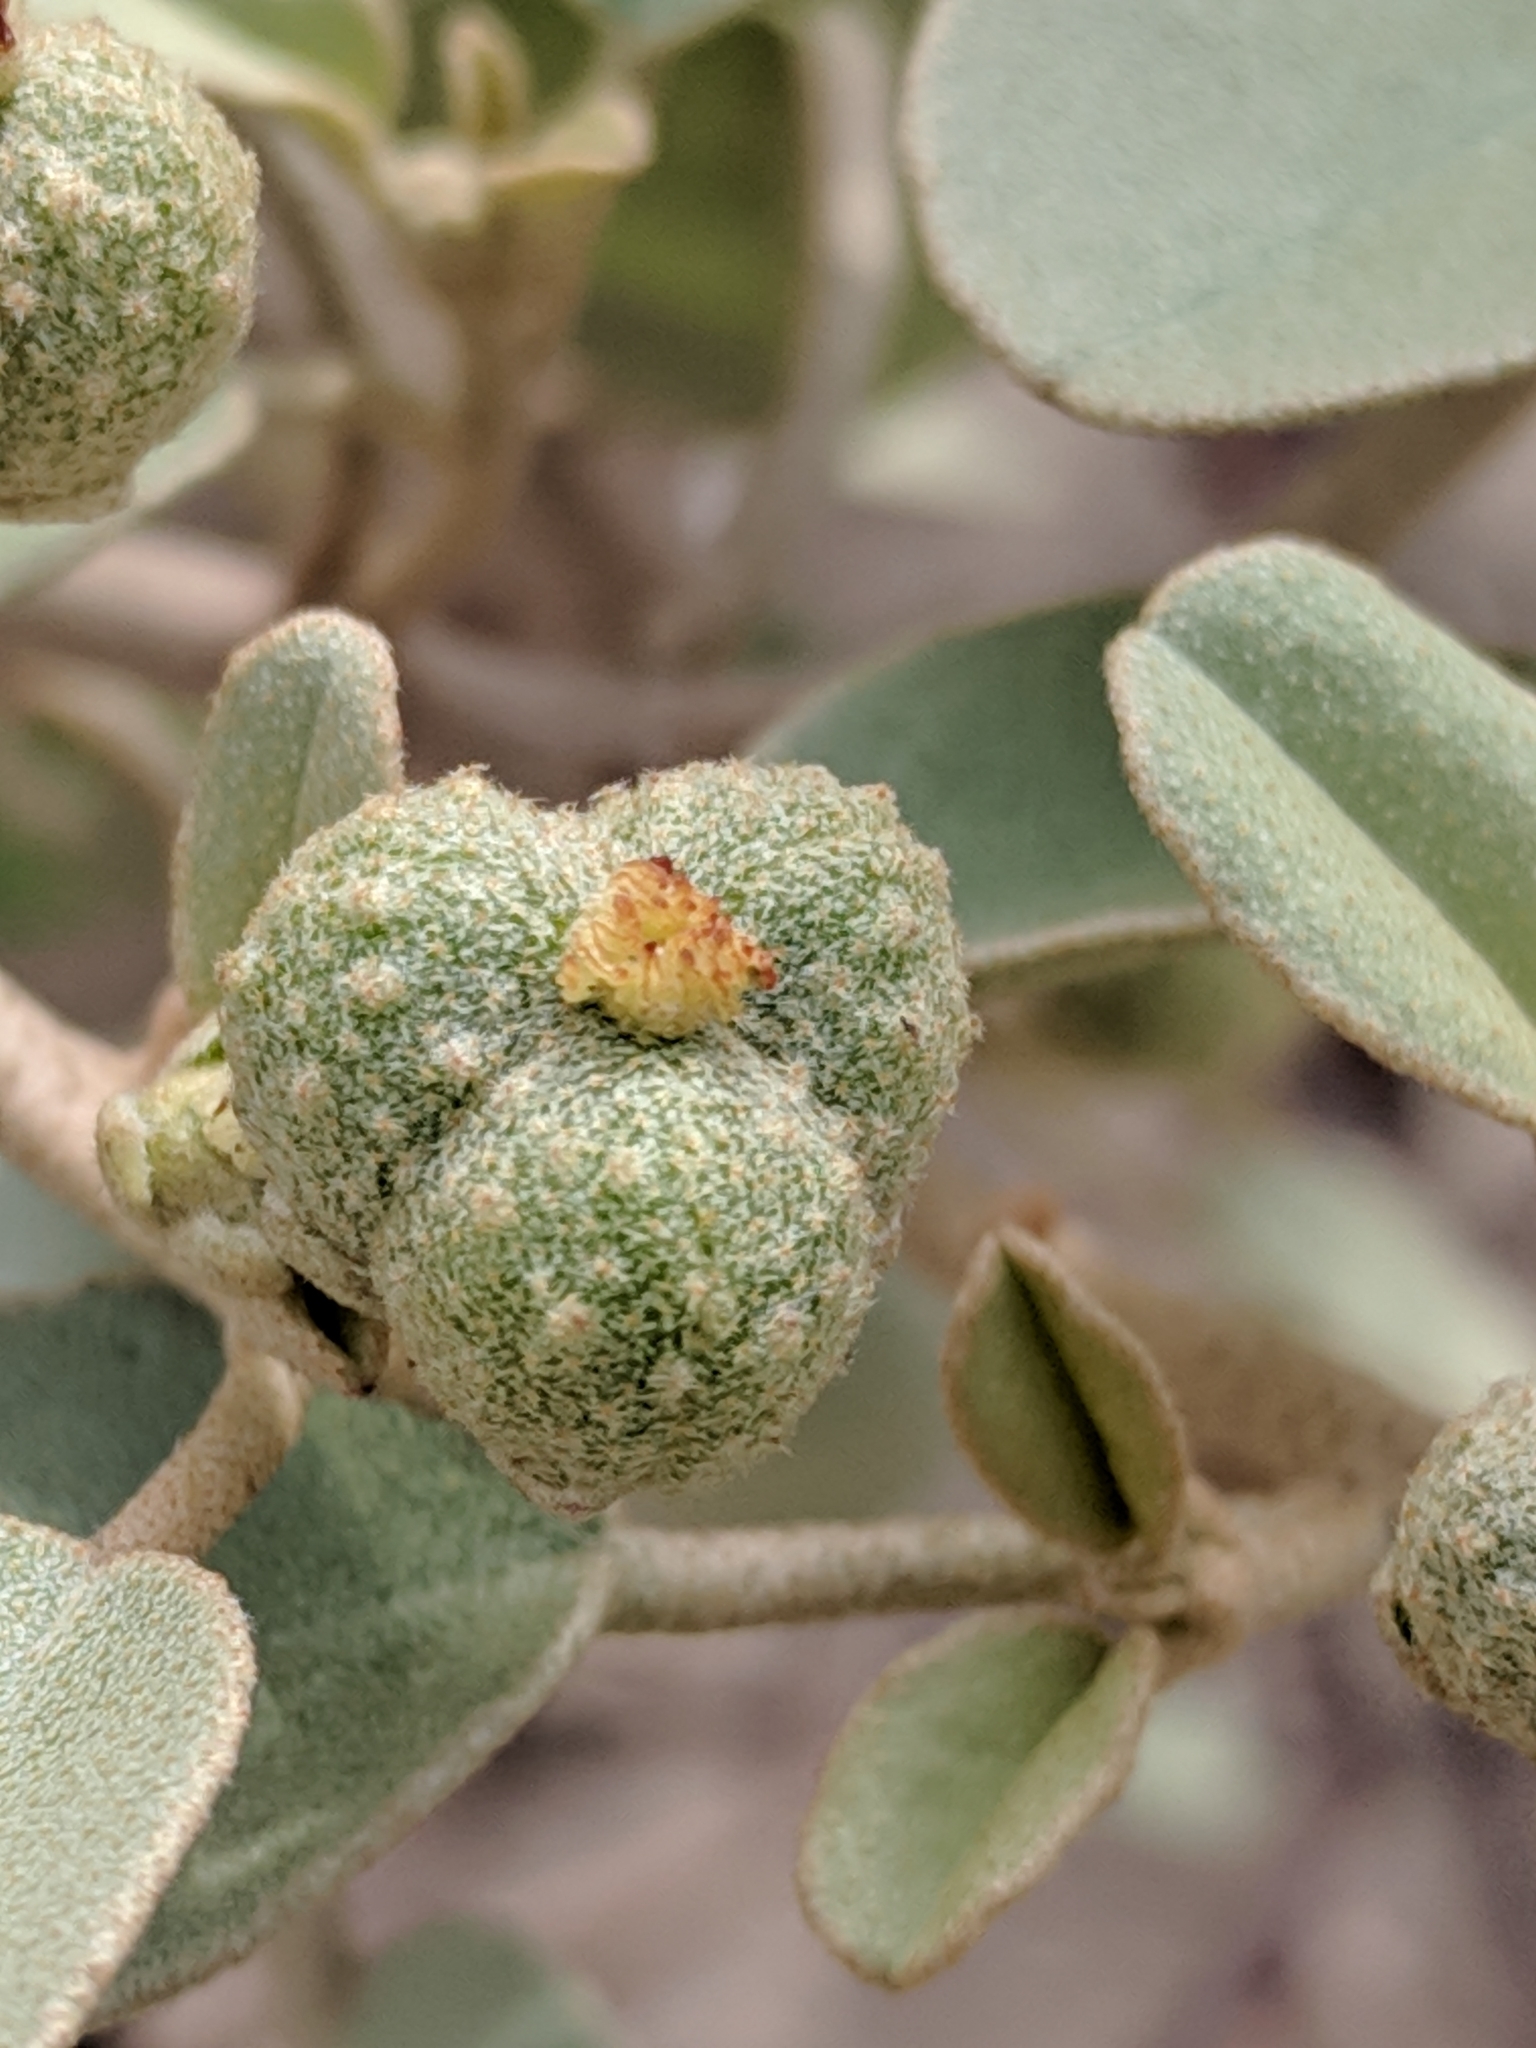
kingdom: Plantae
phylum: Tracheophyta
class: Magnoliopsida
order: Malpighiales
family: Euphorbiaceae
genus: Croton
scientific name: Croton punctatus
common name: Beach-tea
